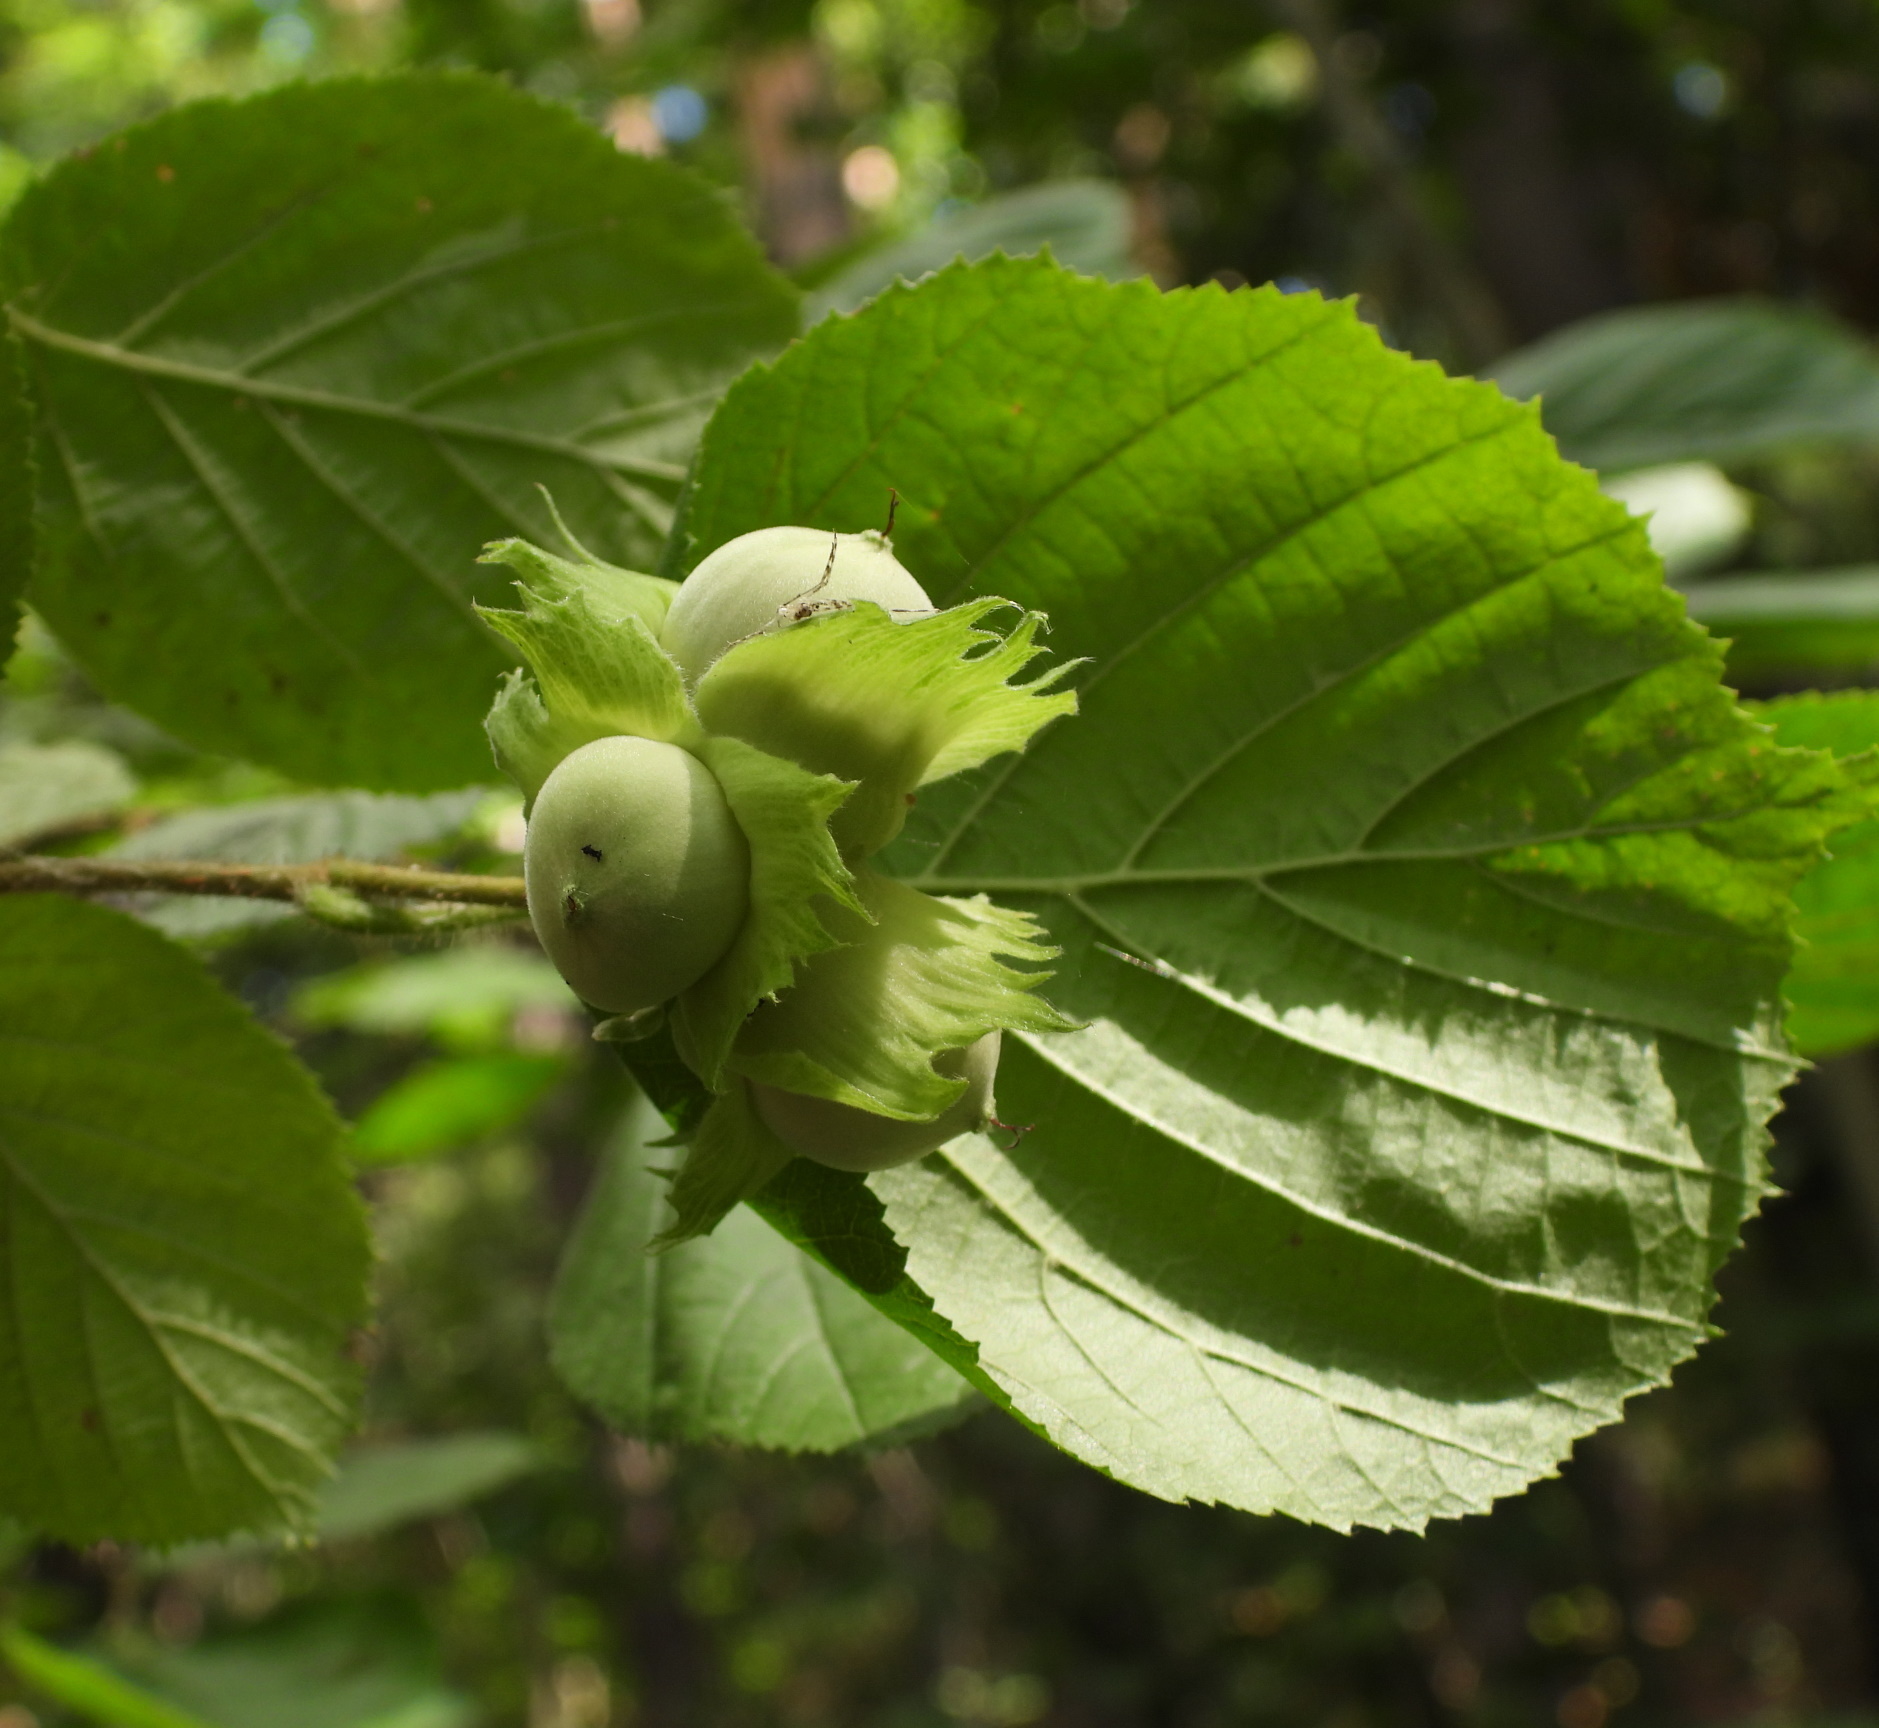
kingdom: Plantae
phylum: Tracheophyta
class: Magnoliopsida
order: Fagales
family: Betulaceae
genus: Corylus
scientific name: Corylus avellana
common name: European hazel
